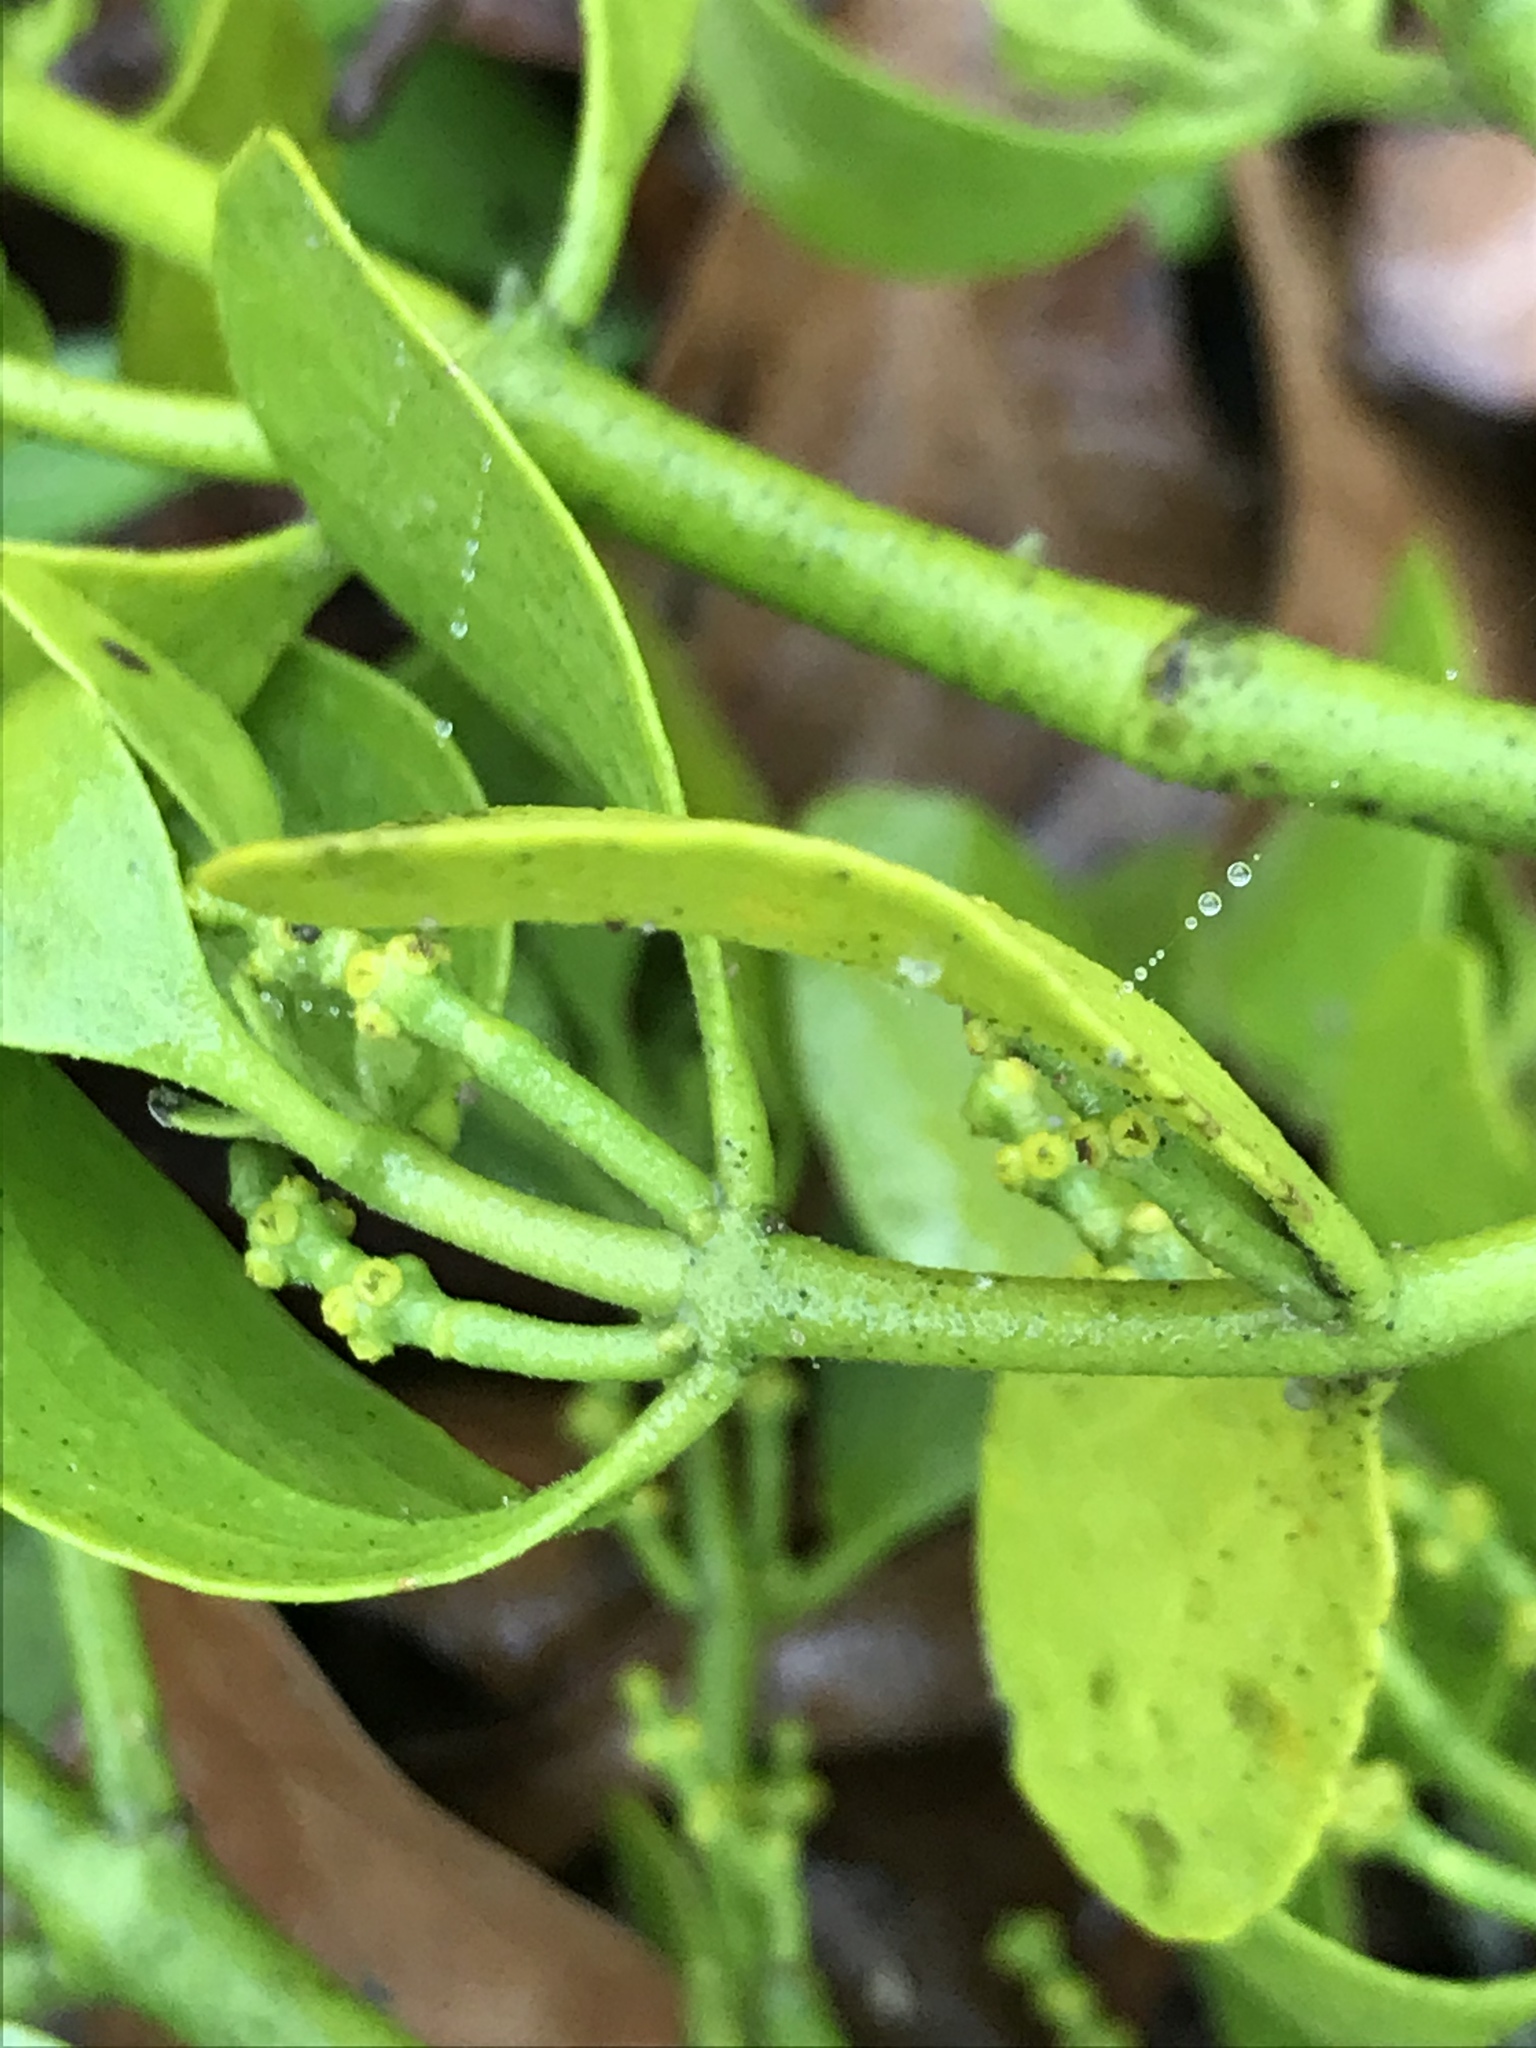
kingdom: Plantae
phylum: Tracheophyta
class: Magnoliopsida
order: Santalales
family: Viscaceae
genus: Phoradendron
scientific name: Phoradendron leucarpum
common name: Pacific mistletoe
